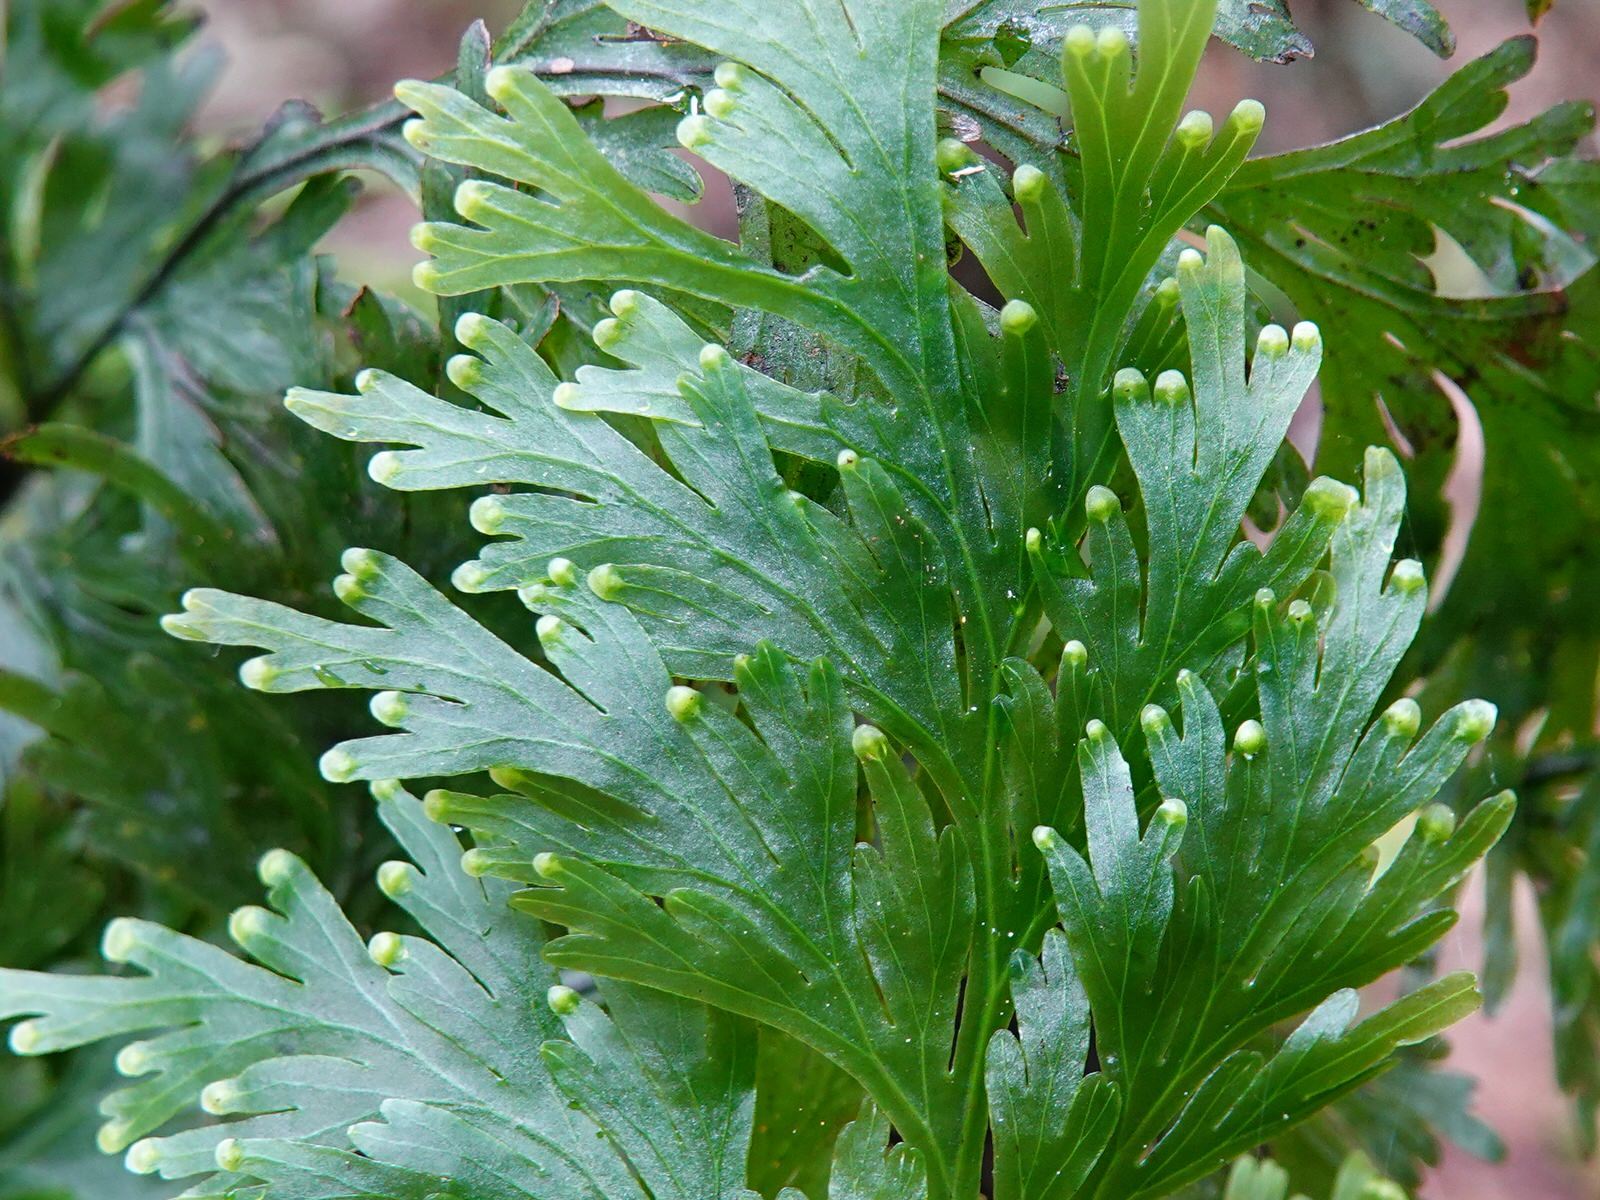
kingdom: Plantae
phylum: Tracheophyta
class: Polypodiopsida
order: Hymenophyllales
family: Hymenophyllaceae
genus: Hymenophyllum
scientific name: Hymenophyllum dilatatum
